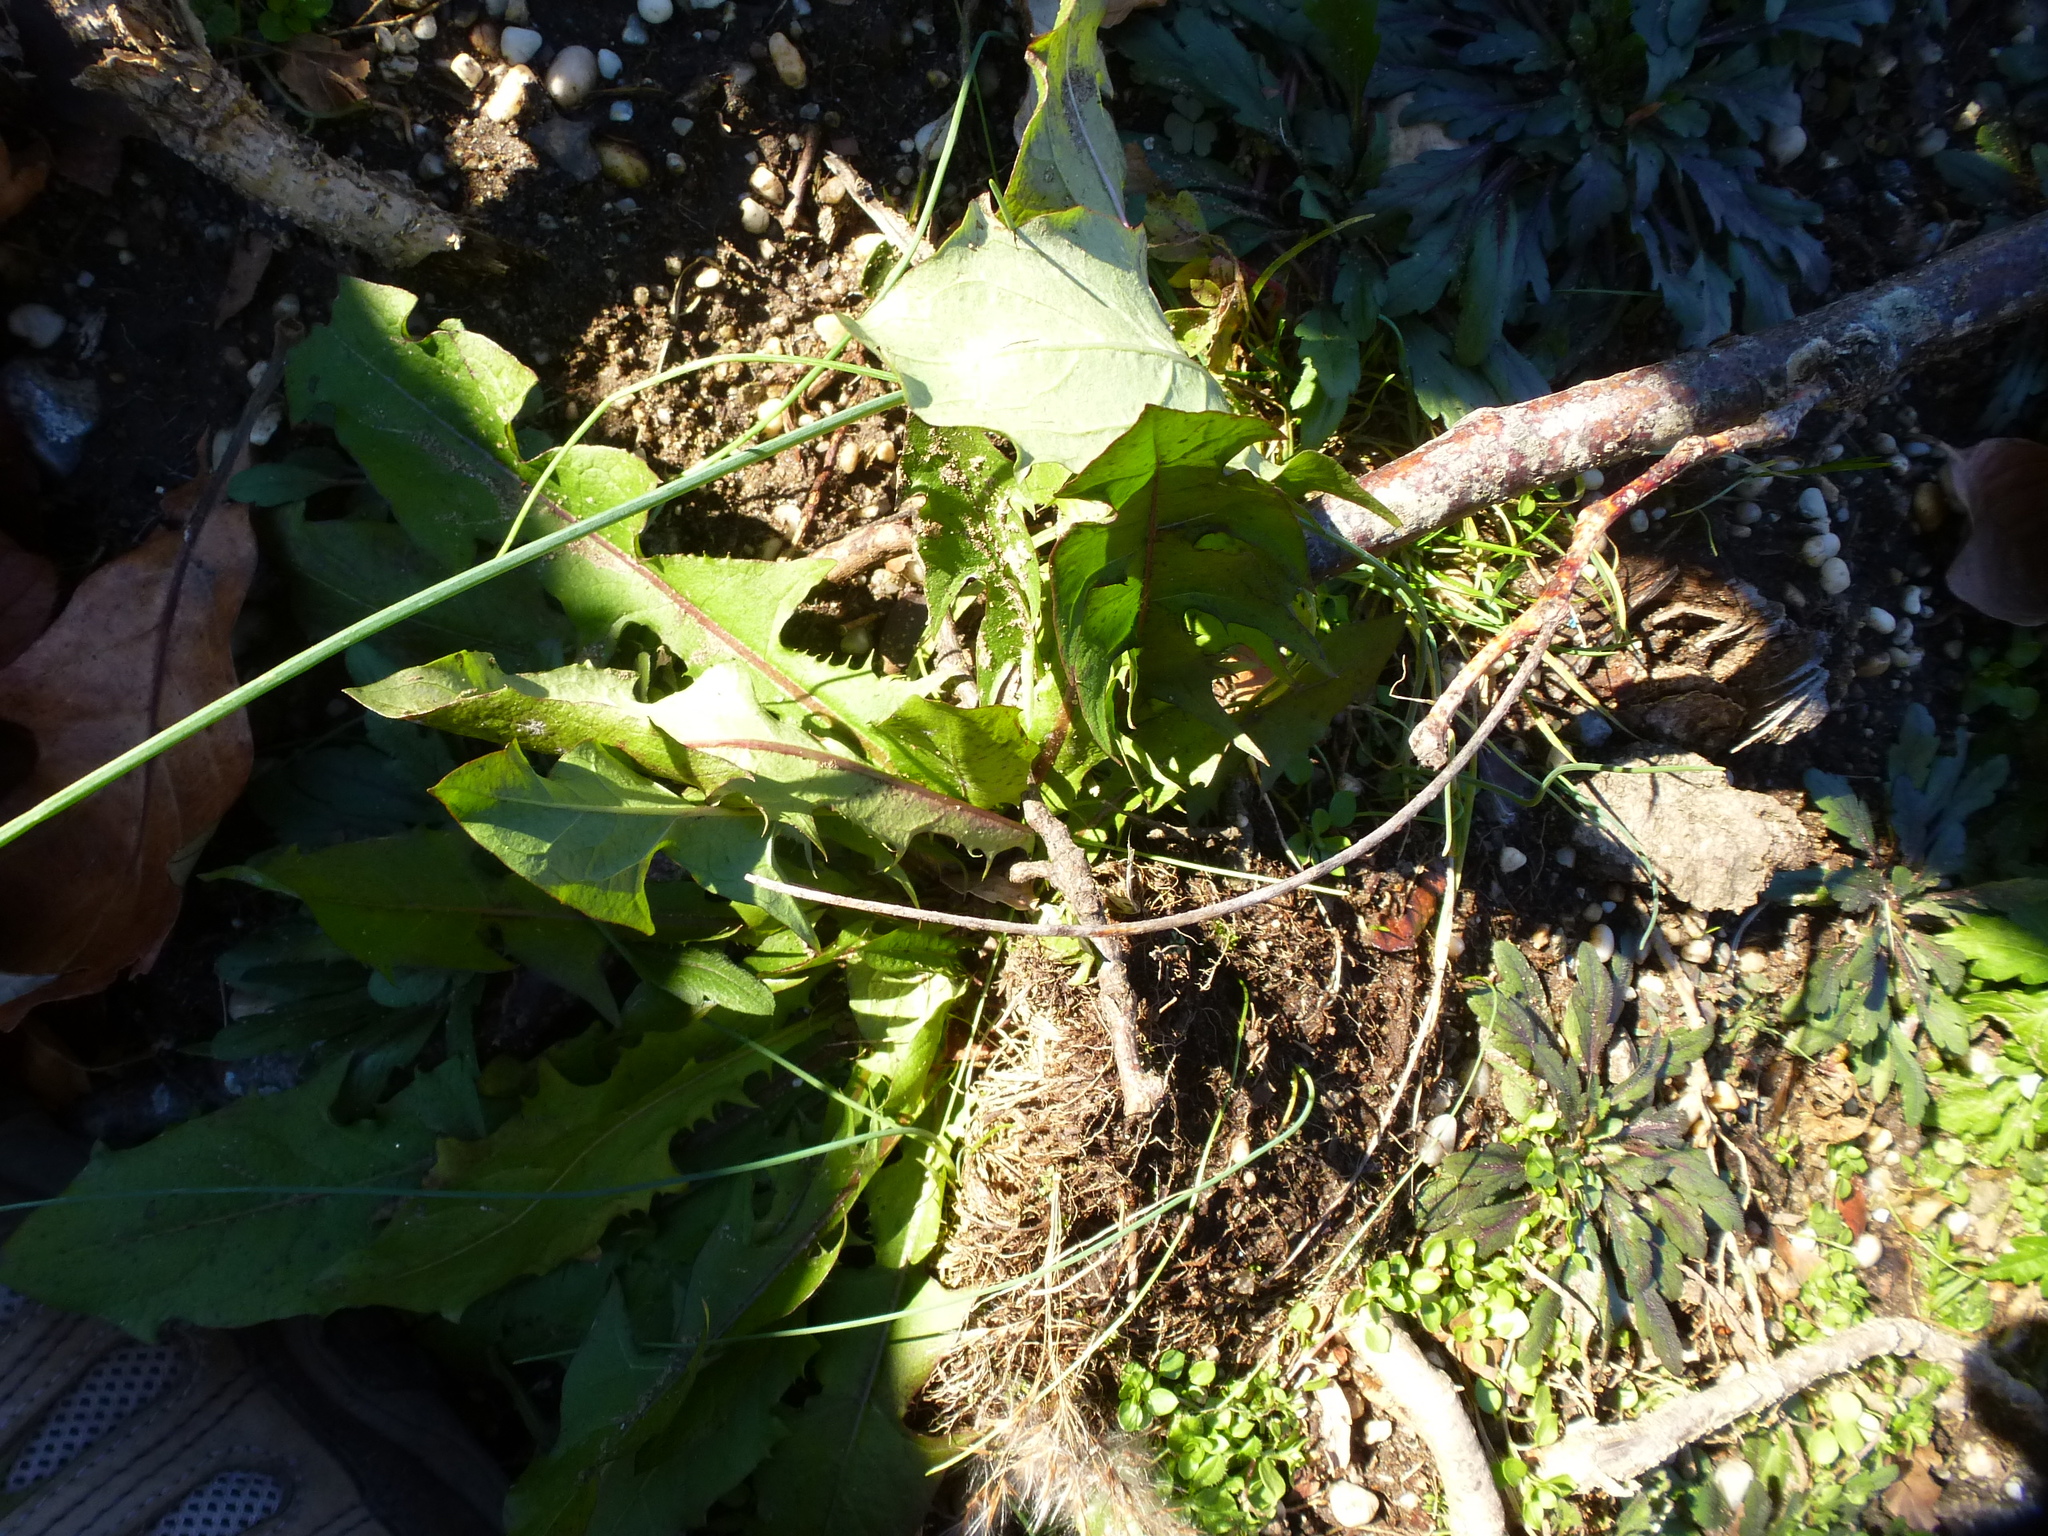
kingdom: Plantae
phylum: Tracheophyta
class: Magnoliopsida
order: Asterales
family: Asteraceae
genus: Taraxacum
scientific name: Taraxacum officinale
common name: Common dandelion
